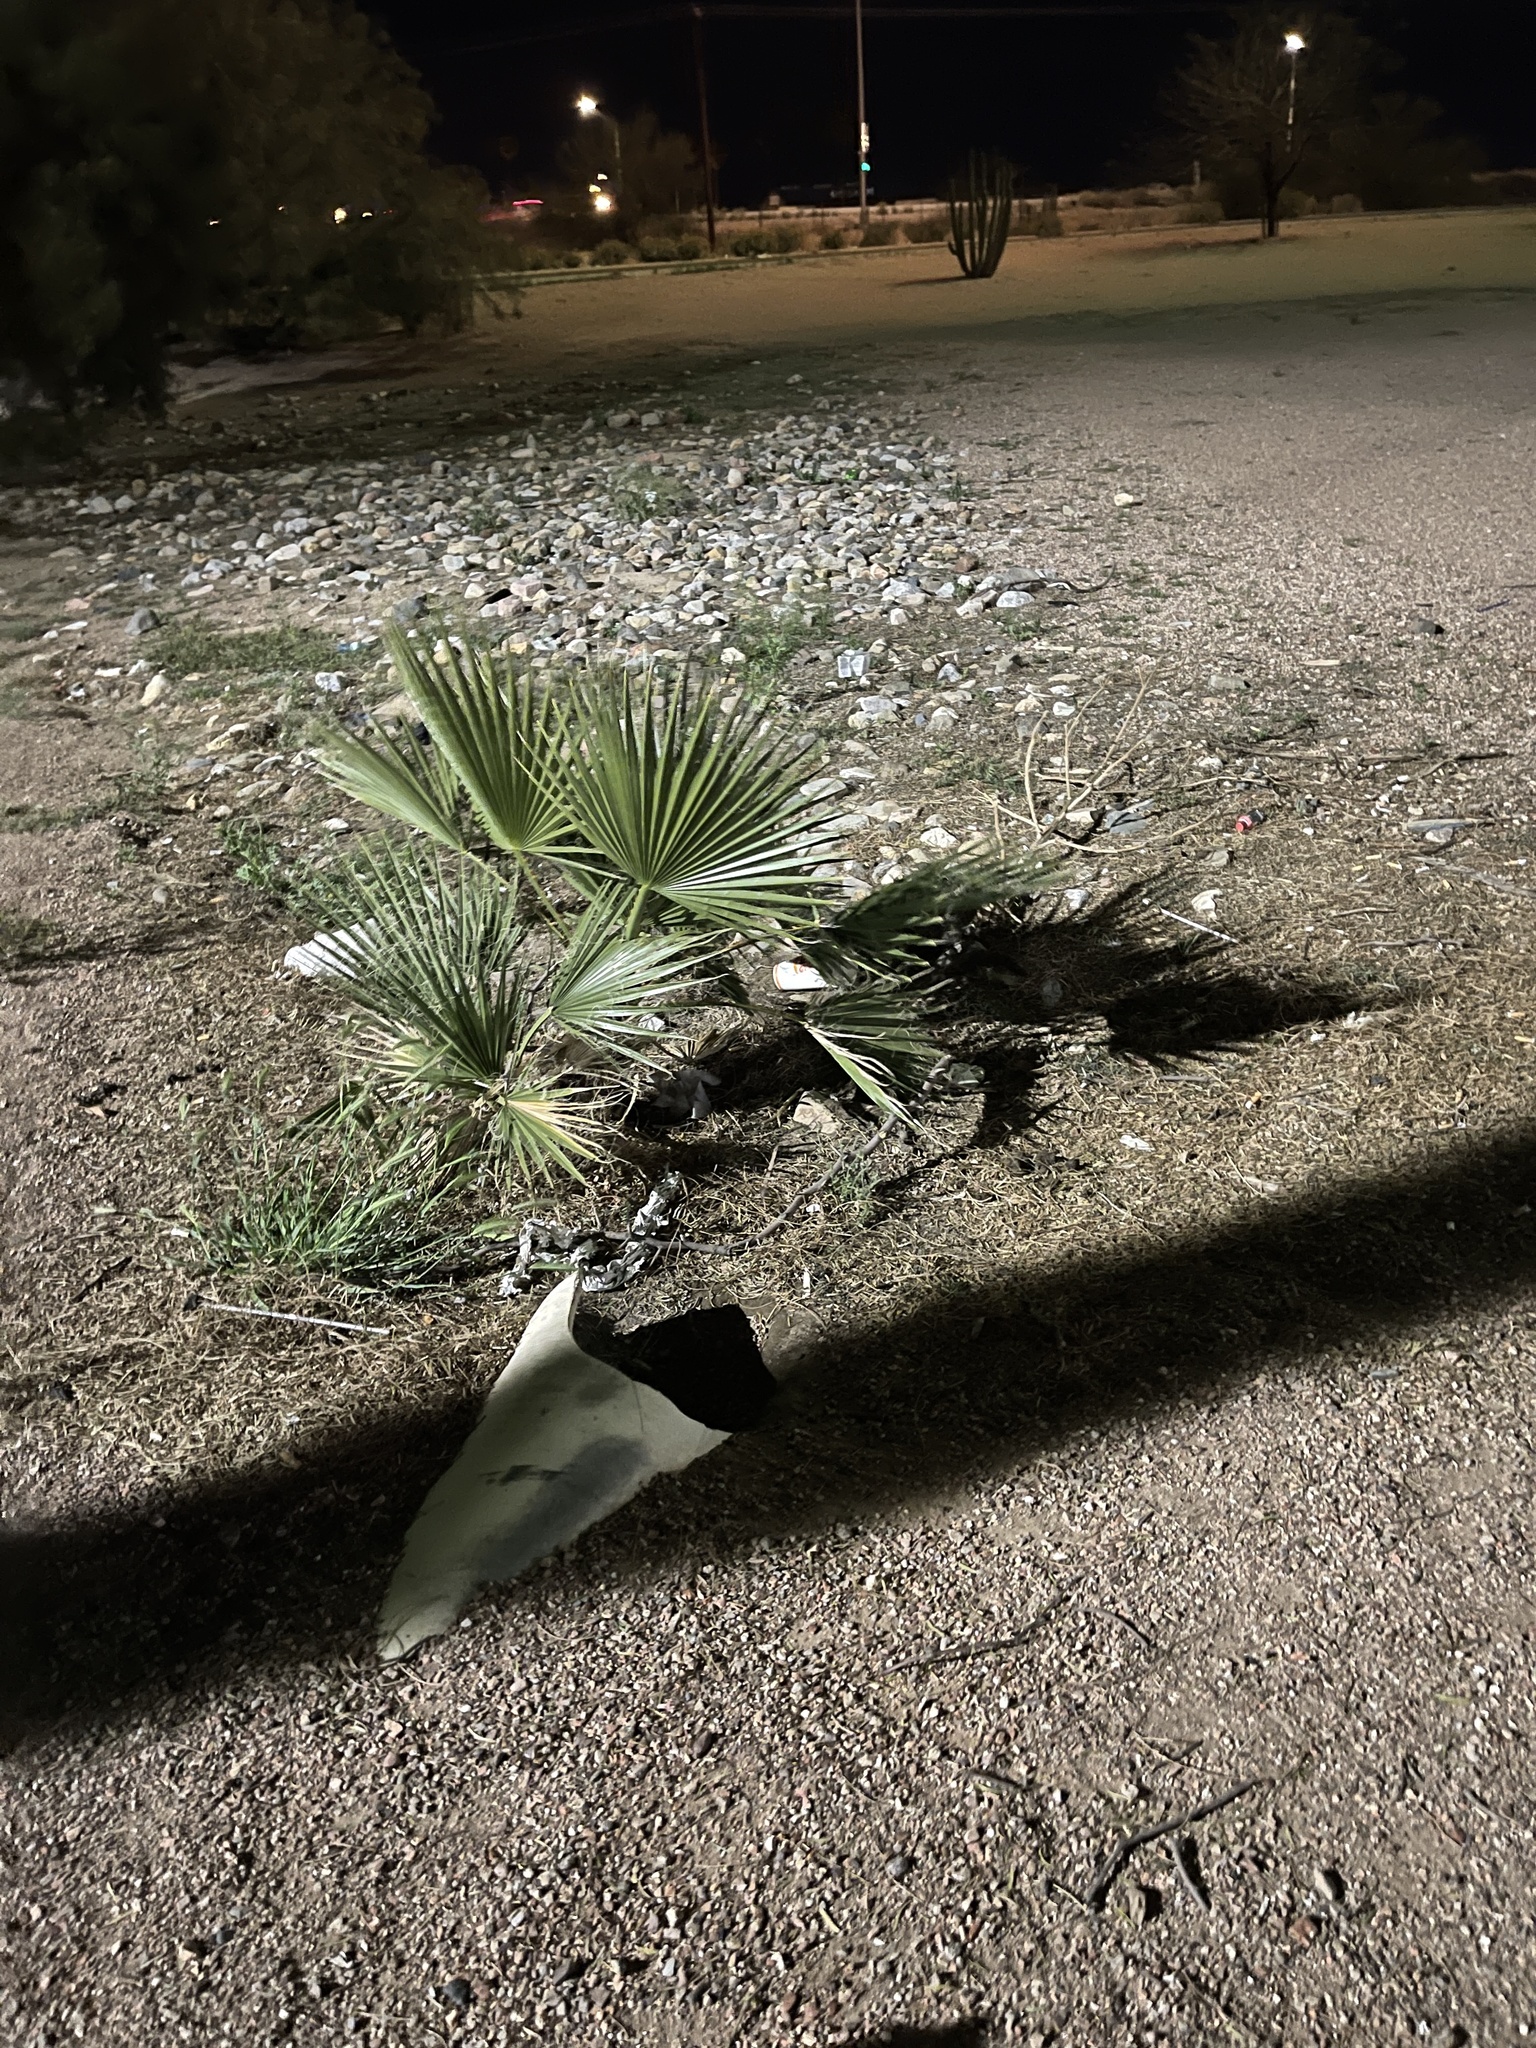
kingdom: Plantae
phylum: Tracheophyta
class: Liliopsida
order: Arecales
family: Arecaceae
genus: Washingtonia
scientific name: Washingtonia filifera
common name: California fan palm
